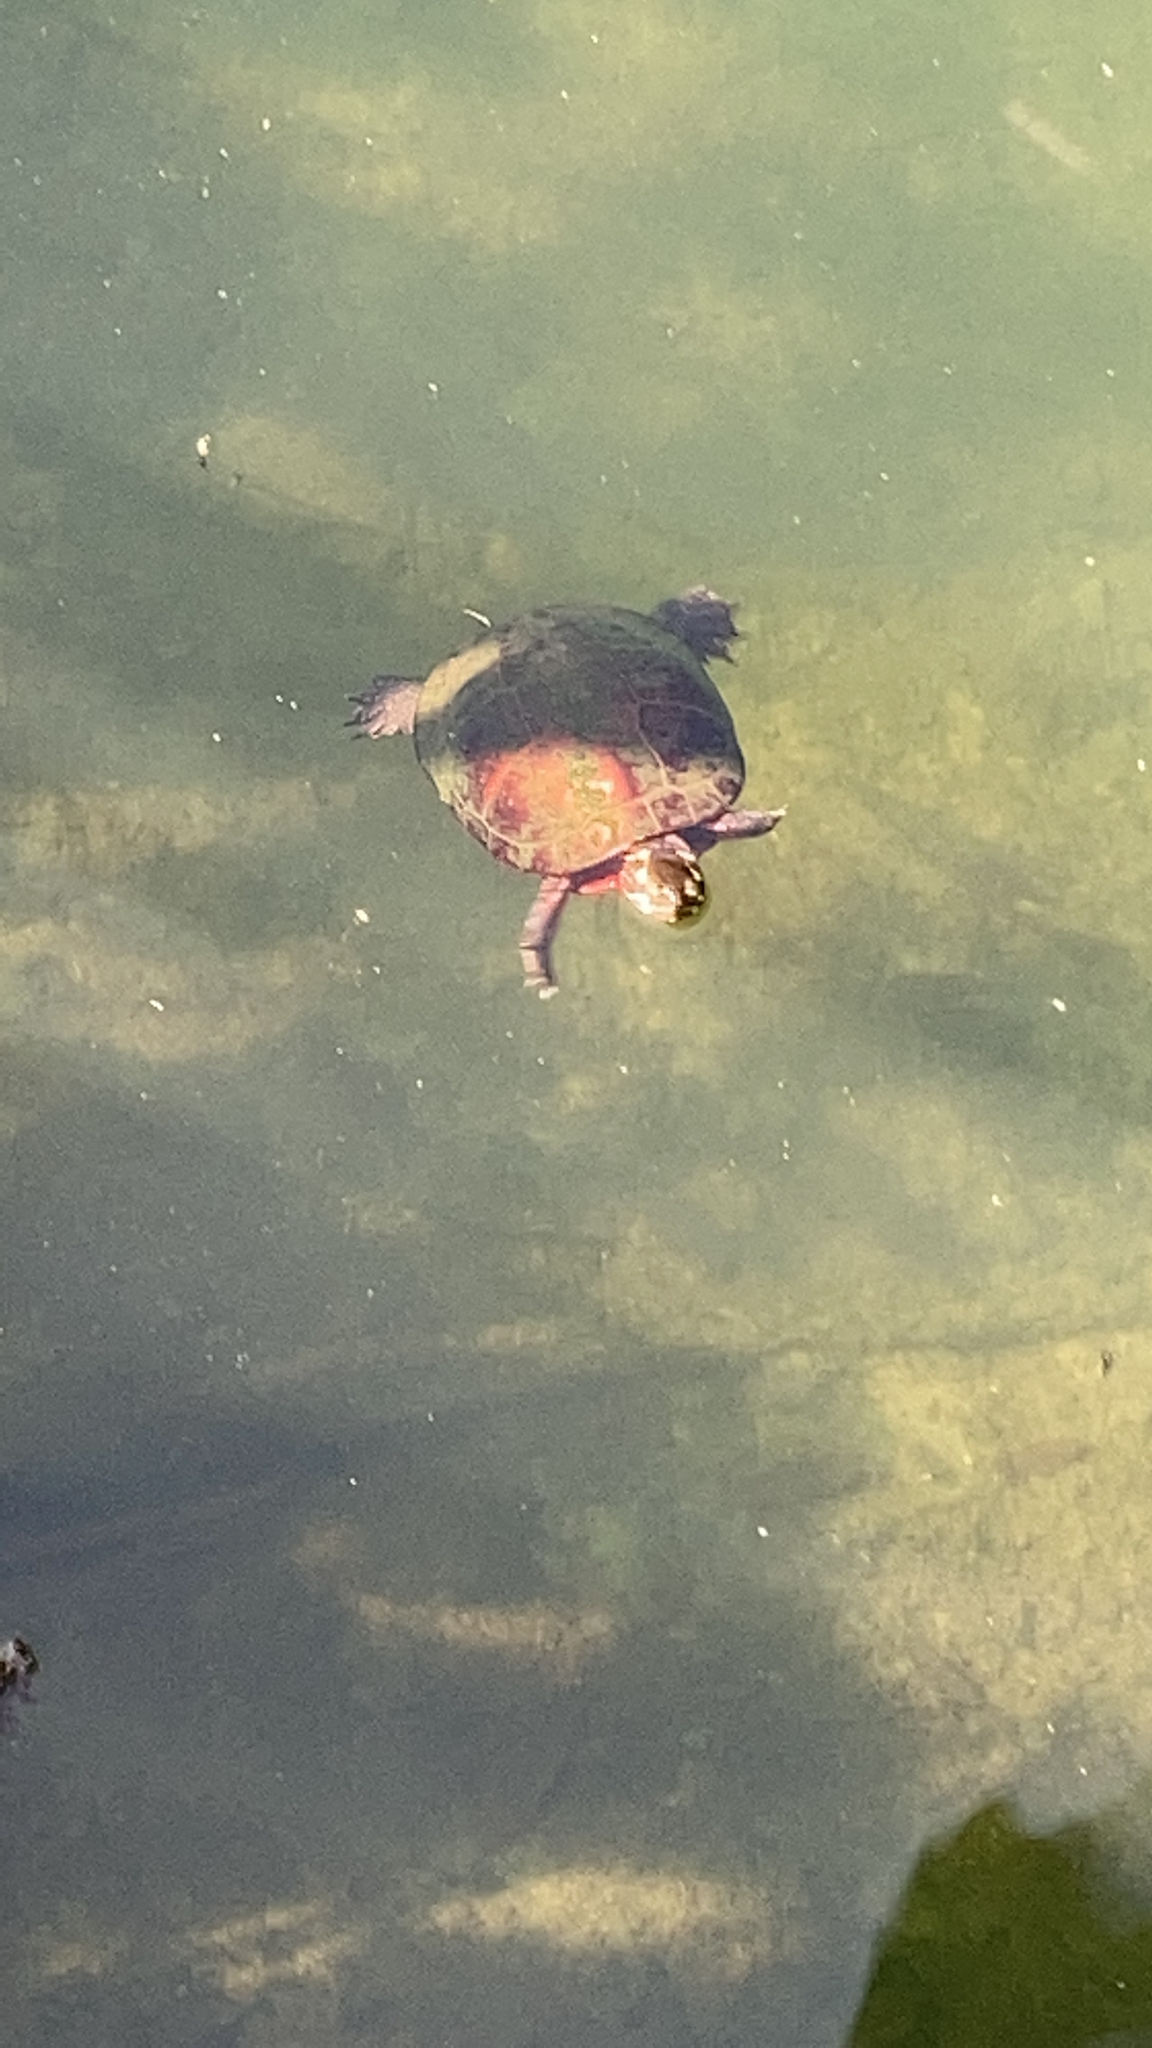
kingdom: Animalia
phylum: Chordata
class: Testudines
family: Emydidae
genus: Chrysemys
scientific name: Chrysemys picta
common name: Painted turtle
